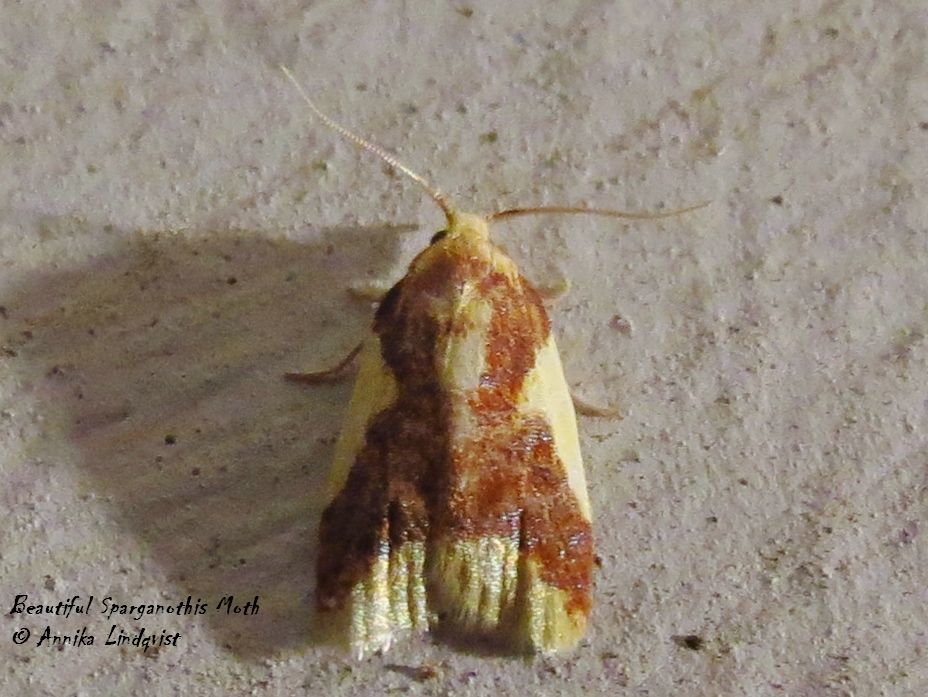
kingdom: Animalia
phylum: Arthropoda
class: Insecta
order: Lepidoptera
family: Tortricidae
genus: Sparganothis
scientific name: Sparganothis pulcherrimana
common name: Beautiful sparganothis
